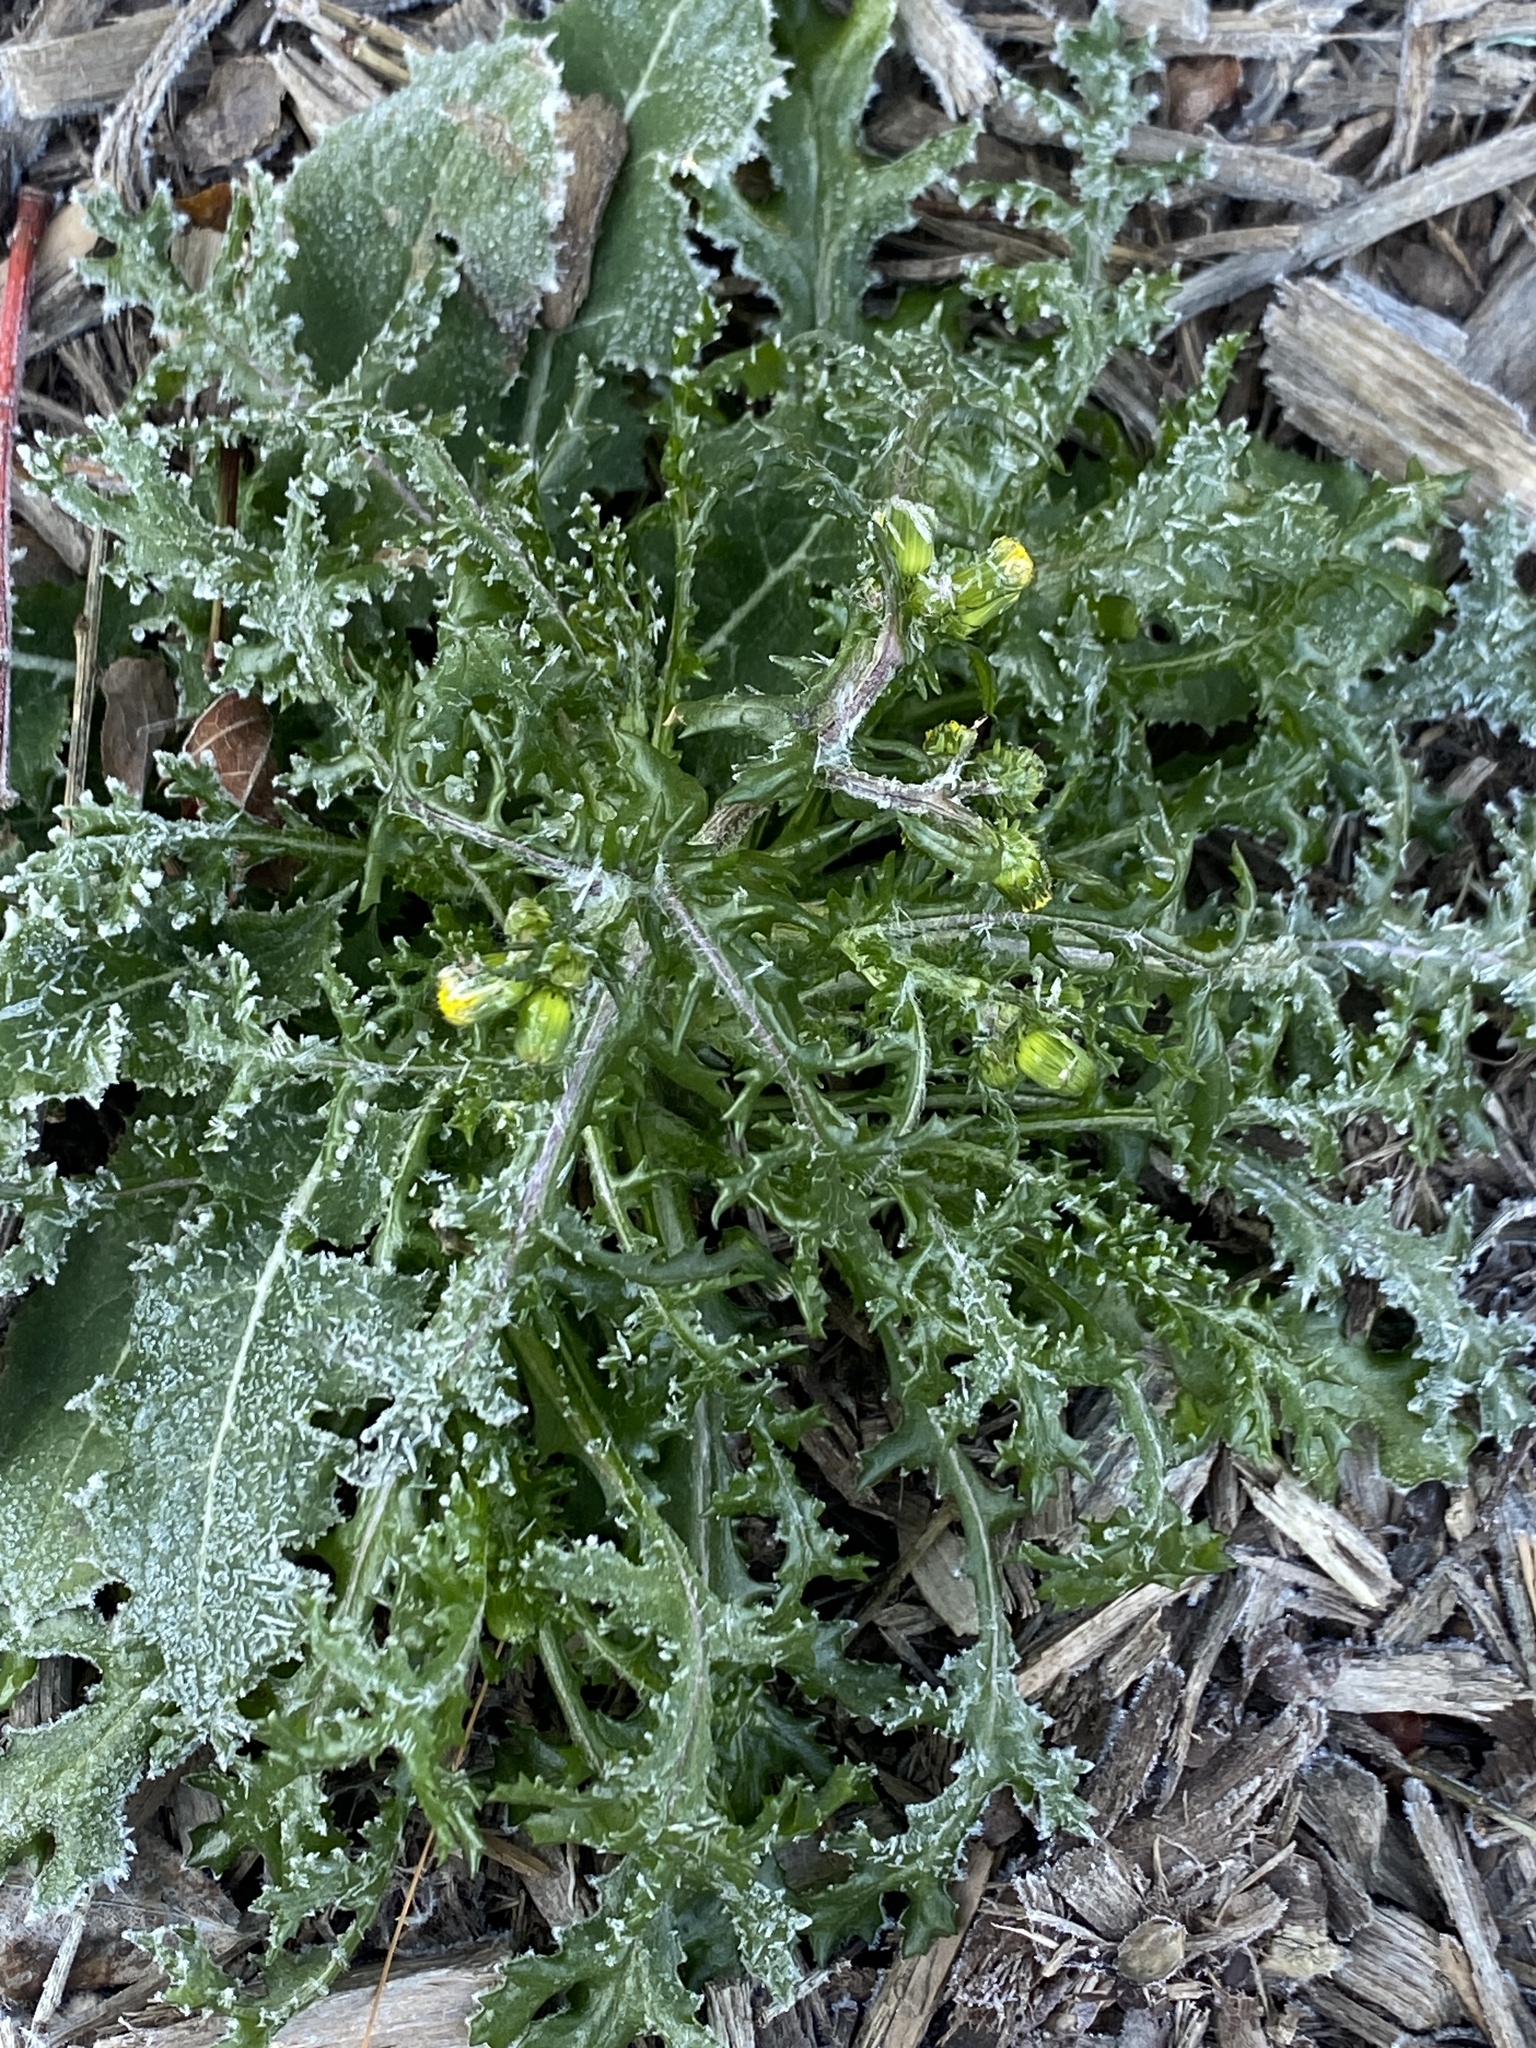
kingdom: Plantae
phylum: Tracheophyta
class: Magnoliopsida
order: Asterales
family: Asteraceae
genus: Senecio
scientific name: Senecio vulgaris
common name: Old-man-in-the-spring
